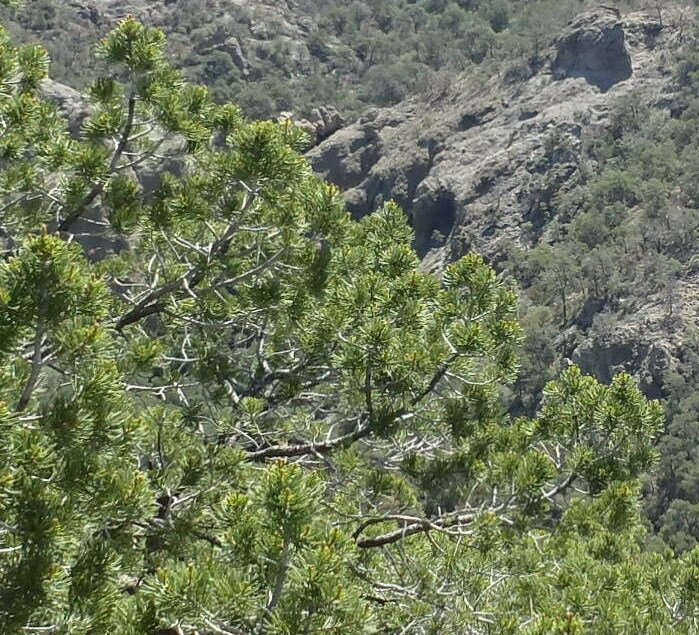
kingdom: Plantae
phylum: Tracheophyta
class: Pinopsida
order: Pinales
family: Pinaceae
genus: Pinus
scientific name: Pinus cembroides
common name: Mexican nut pine
